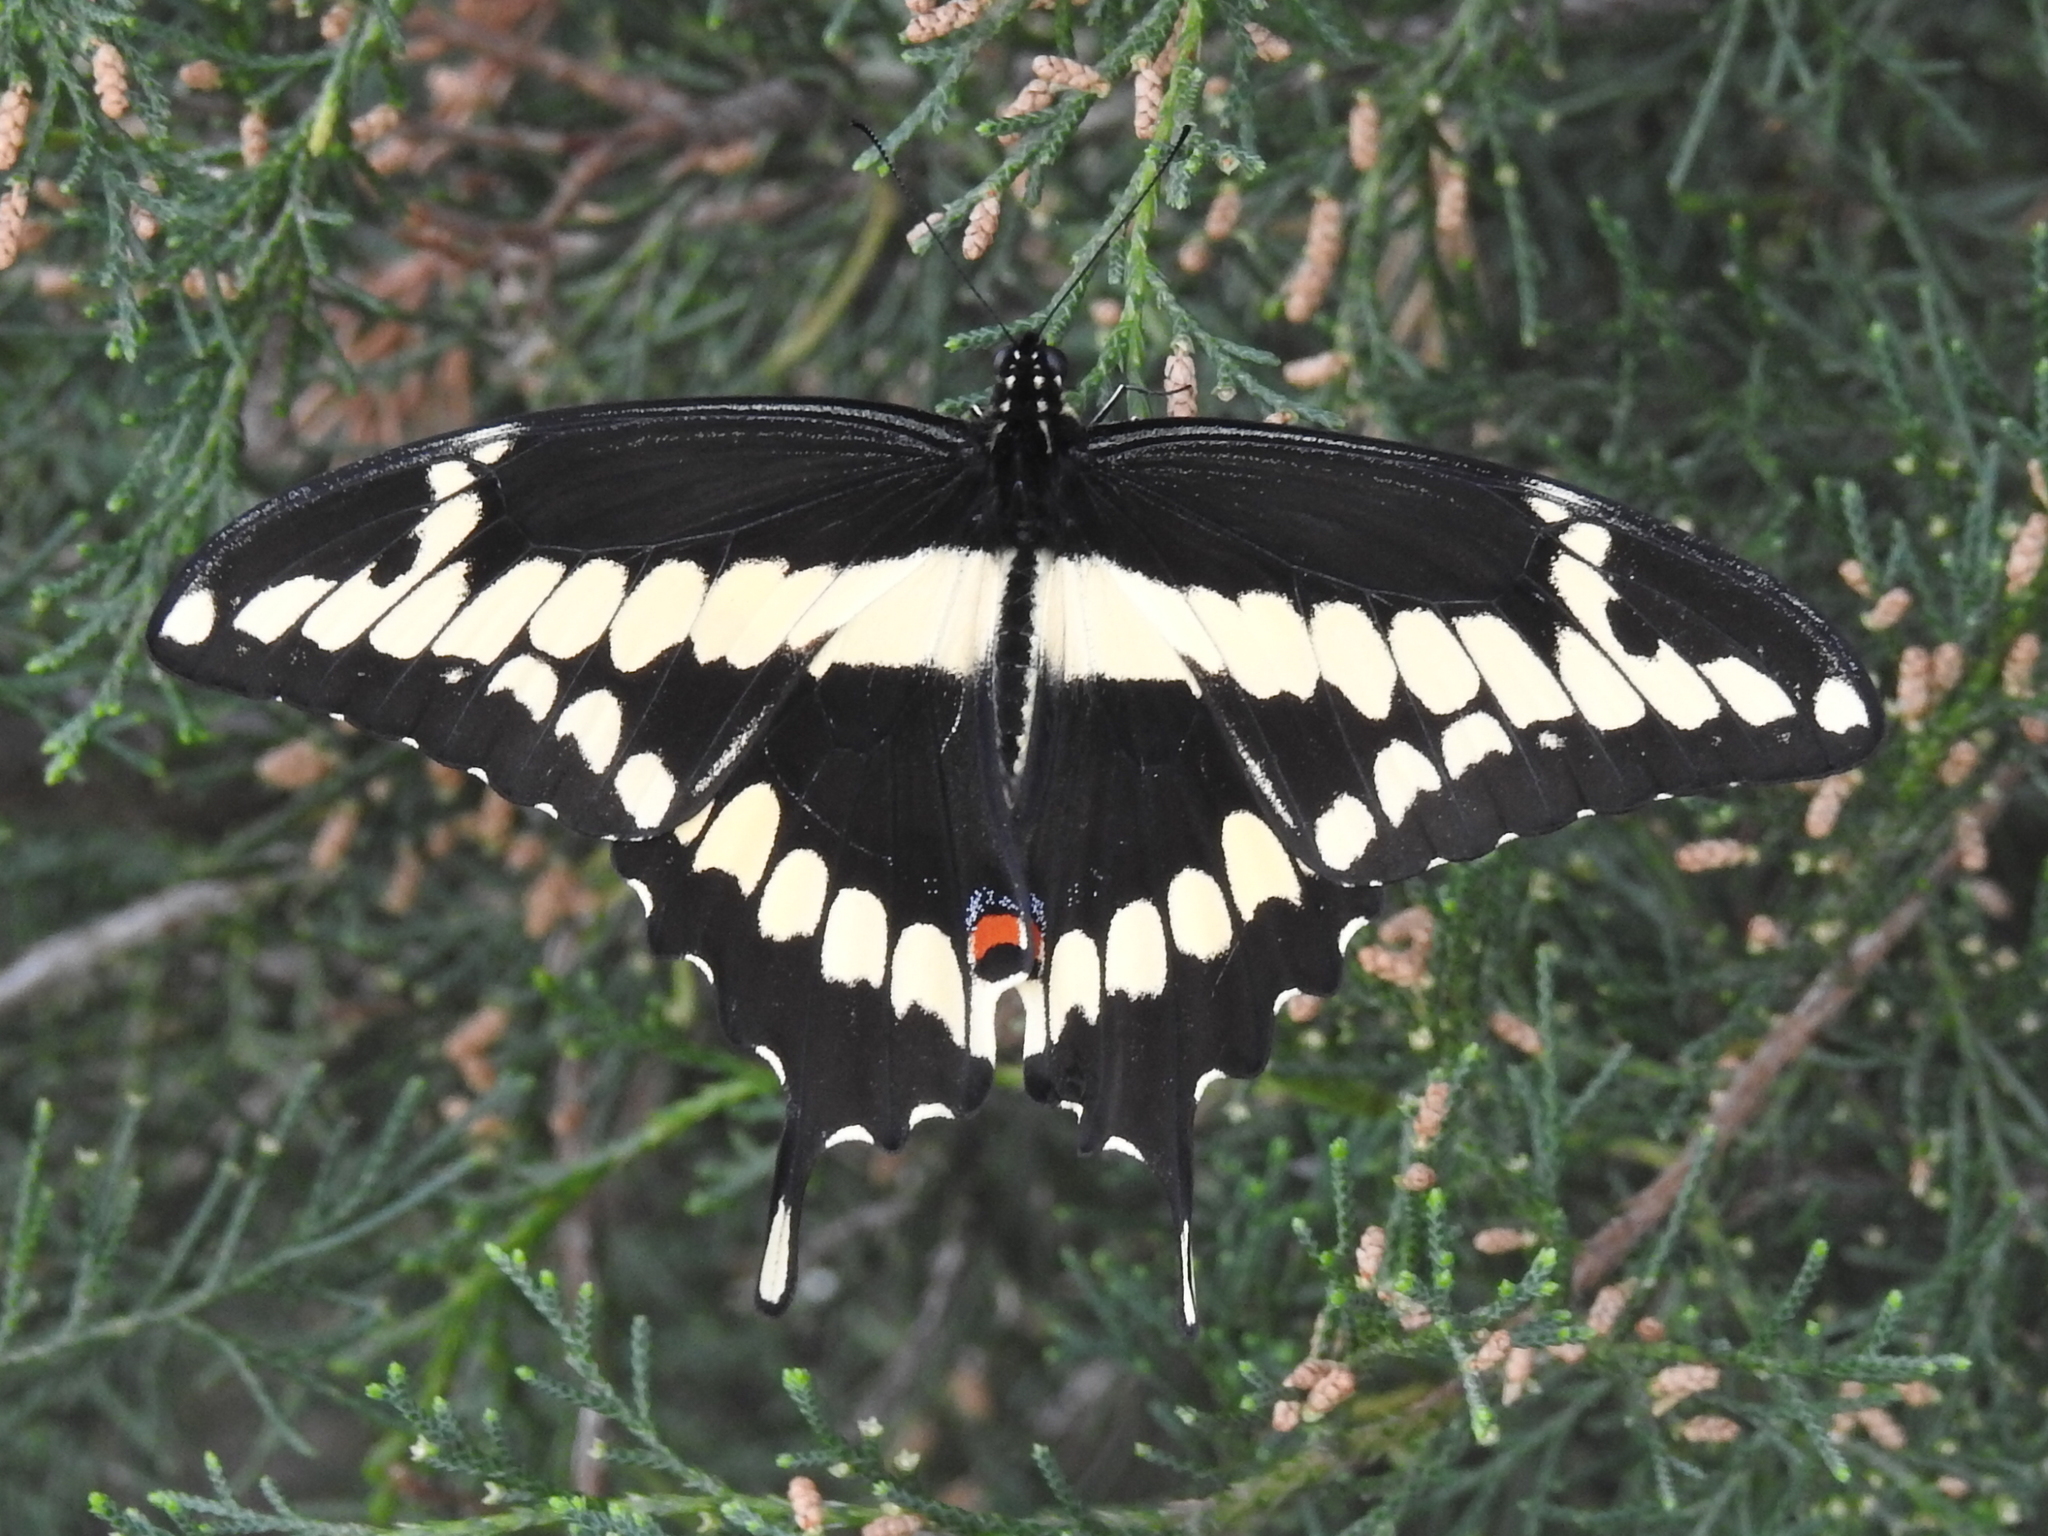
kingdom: Animalia
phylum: Arthropoda
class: Insecta
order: Lepidoptera
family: Papilionidae
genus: Papilio
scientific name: Papilio cresphontes
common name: Giant swallowtail
